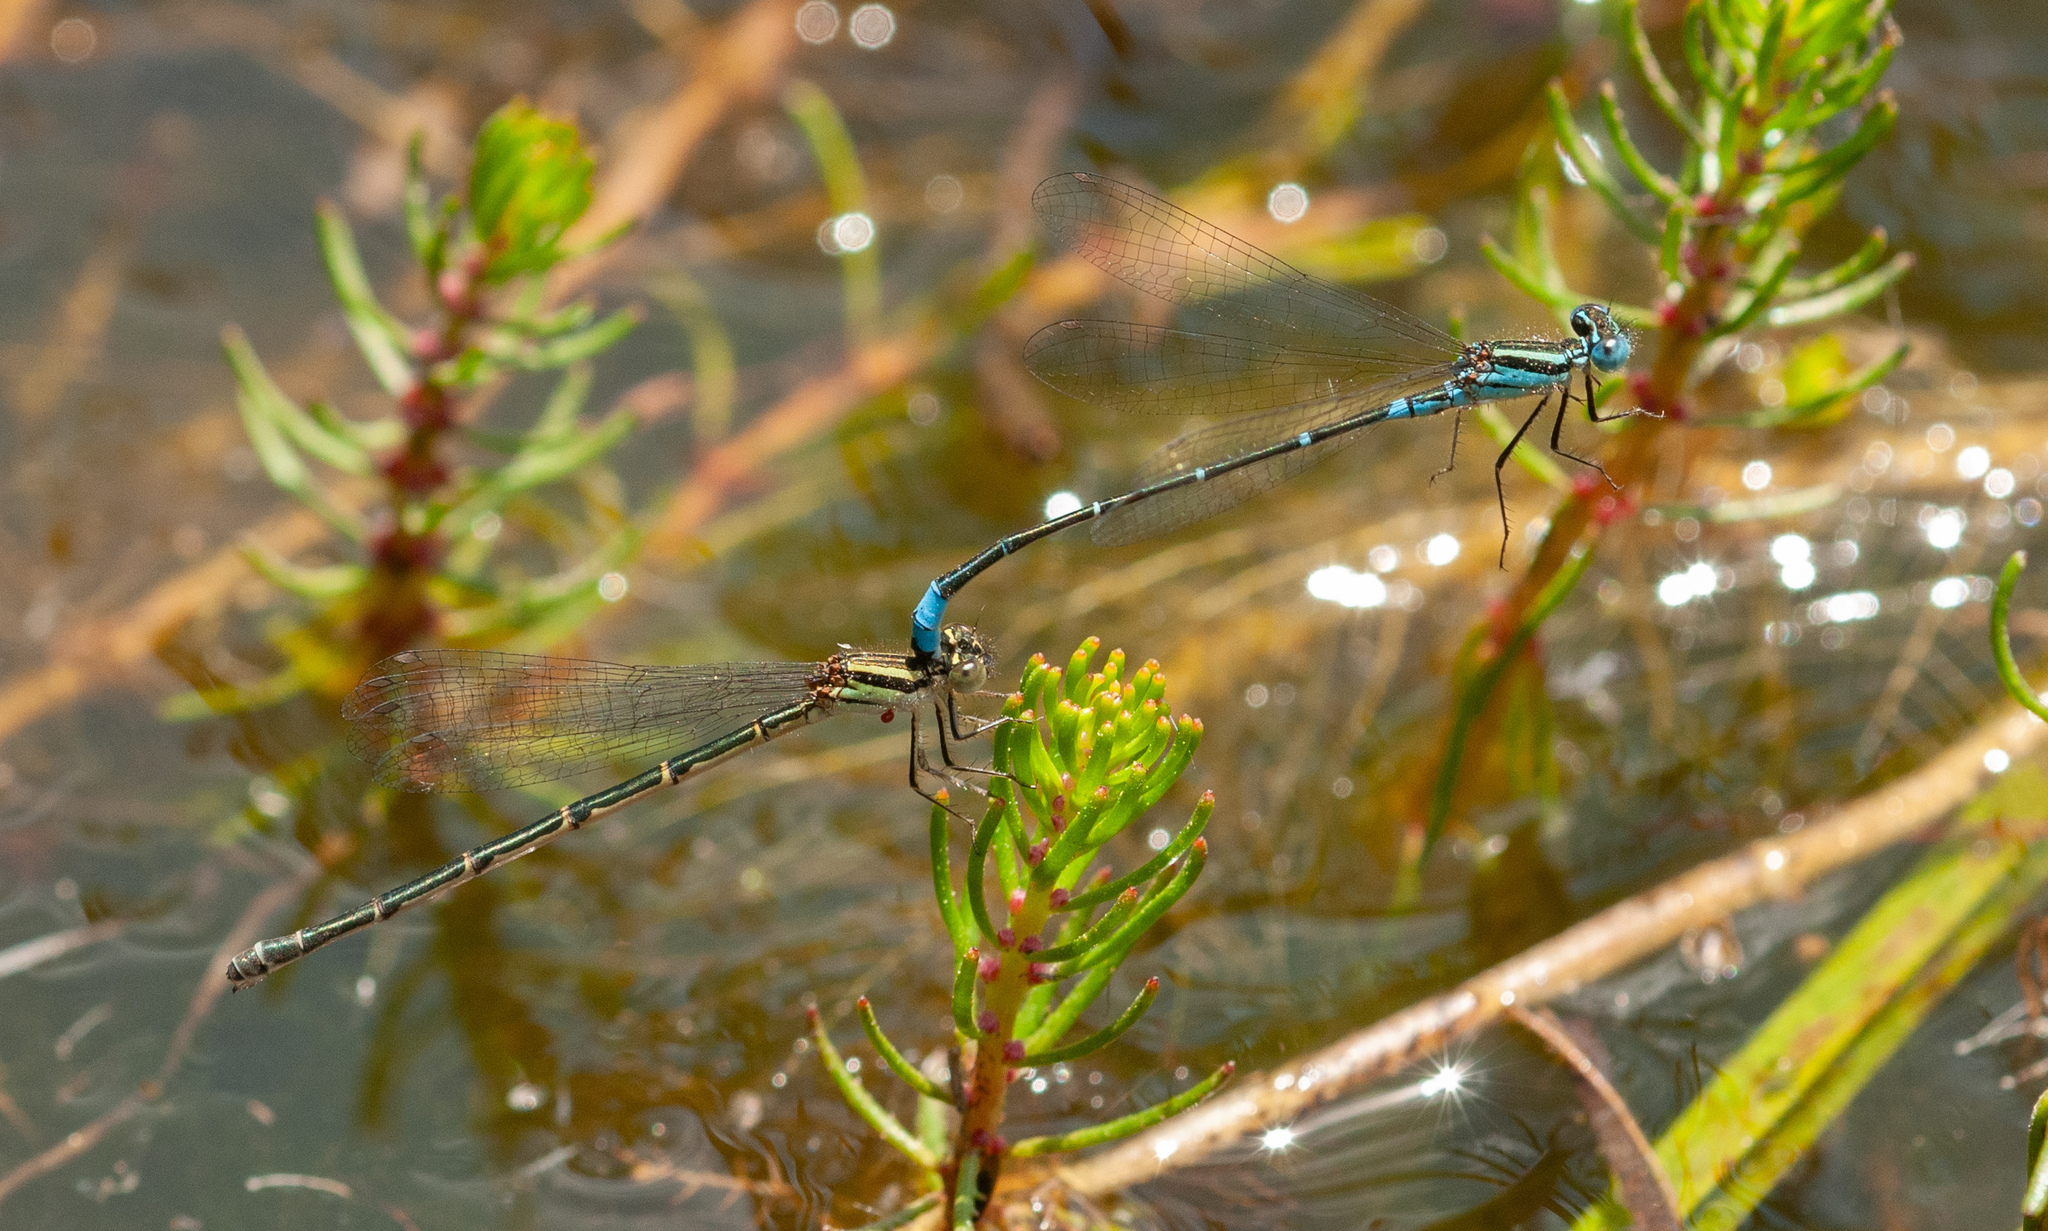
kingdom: Animalia
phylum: Arthropoda
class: Insecta
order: Odonata
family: Coenagrionidae
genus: Austroagrion
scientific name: Austroagrion watsoni
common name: Eastern billabongfly
